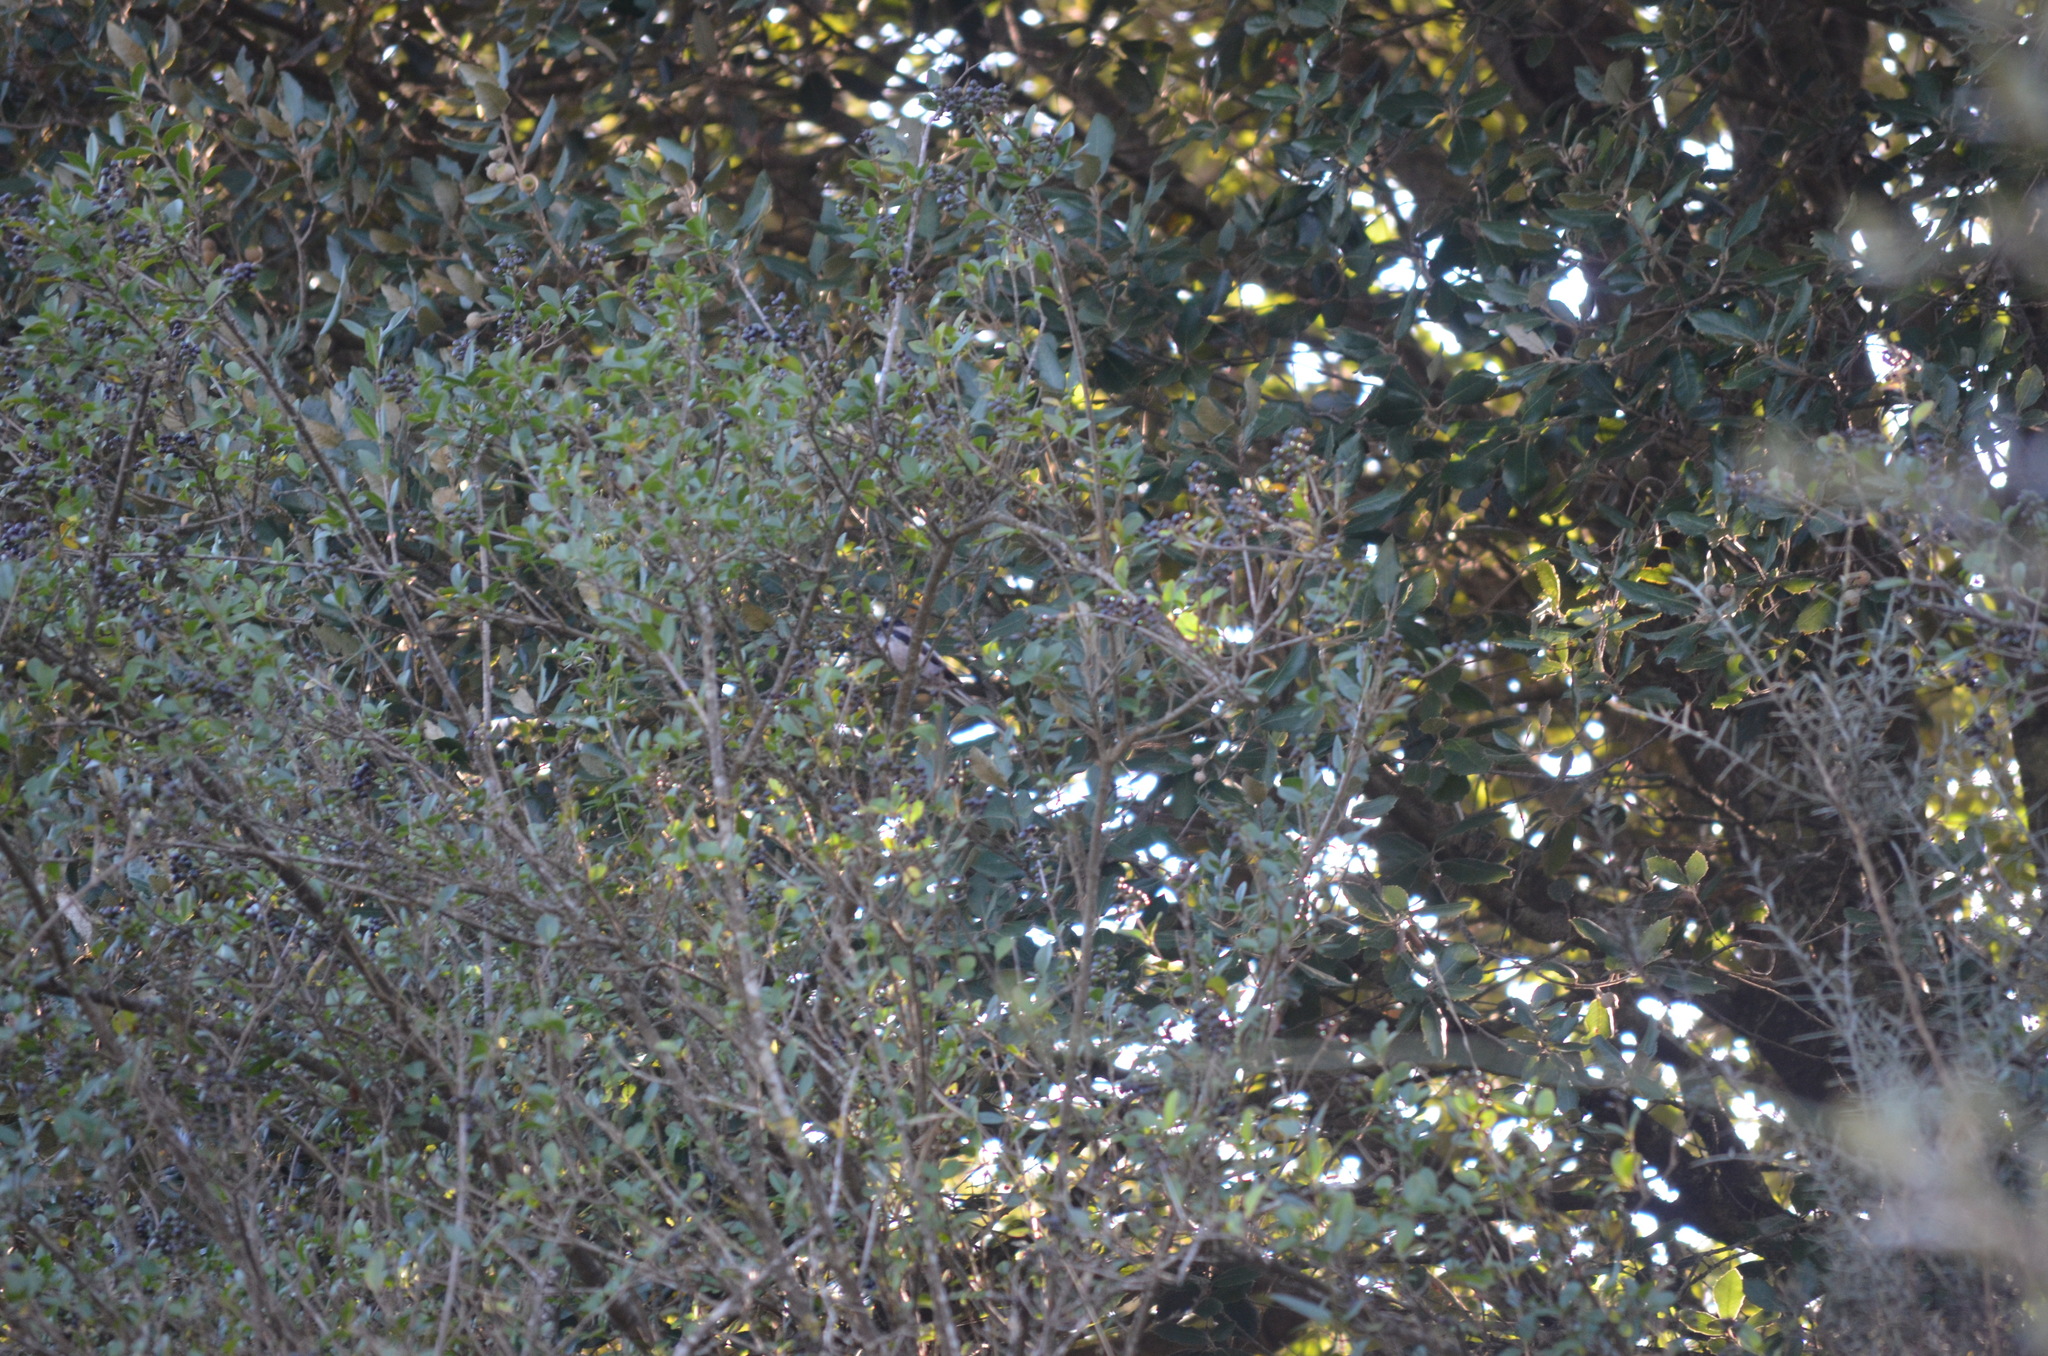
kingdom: Animalia
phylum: Chordata
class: Aves
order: Passeriformes
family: Aegithalidae
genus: Aegithalos
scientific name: Aegithalos caudatus
